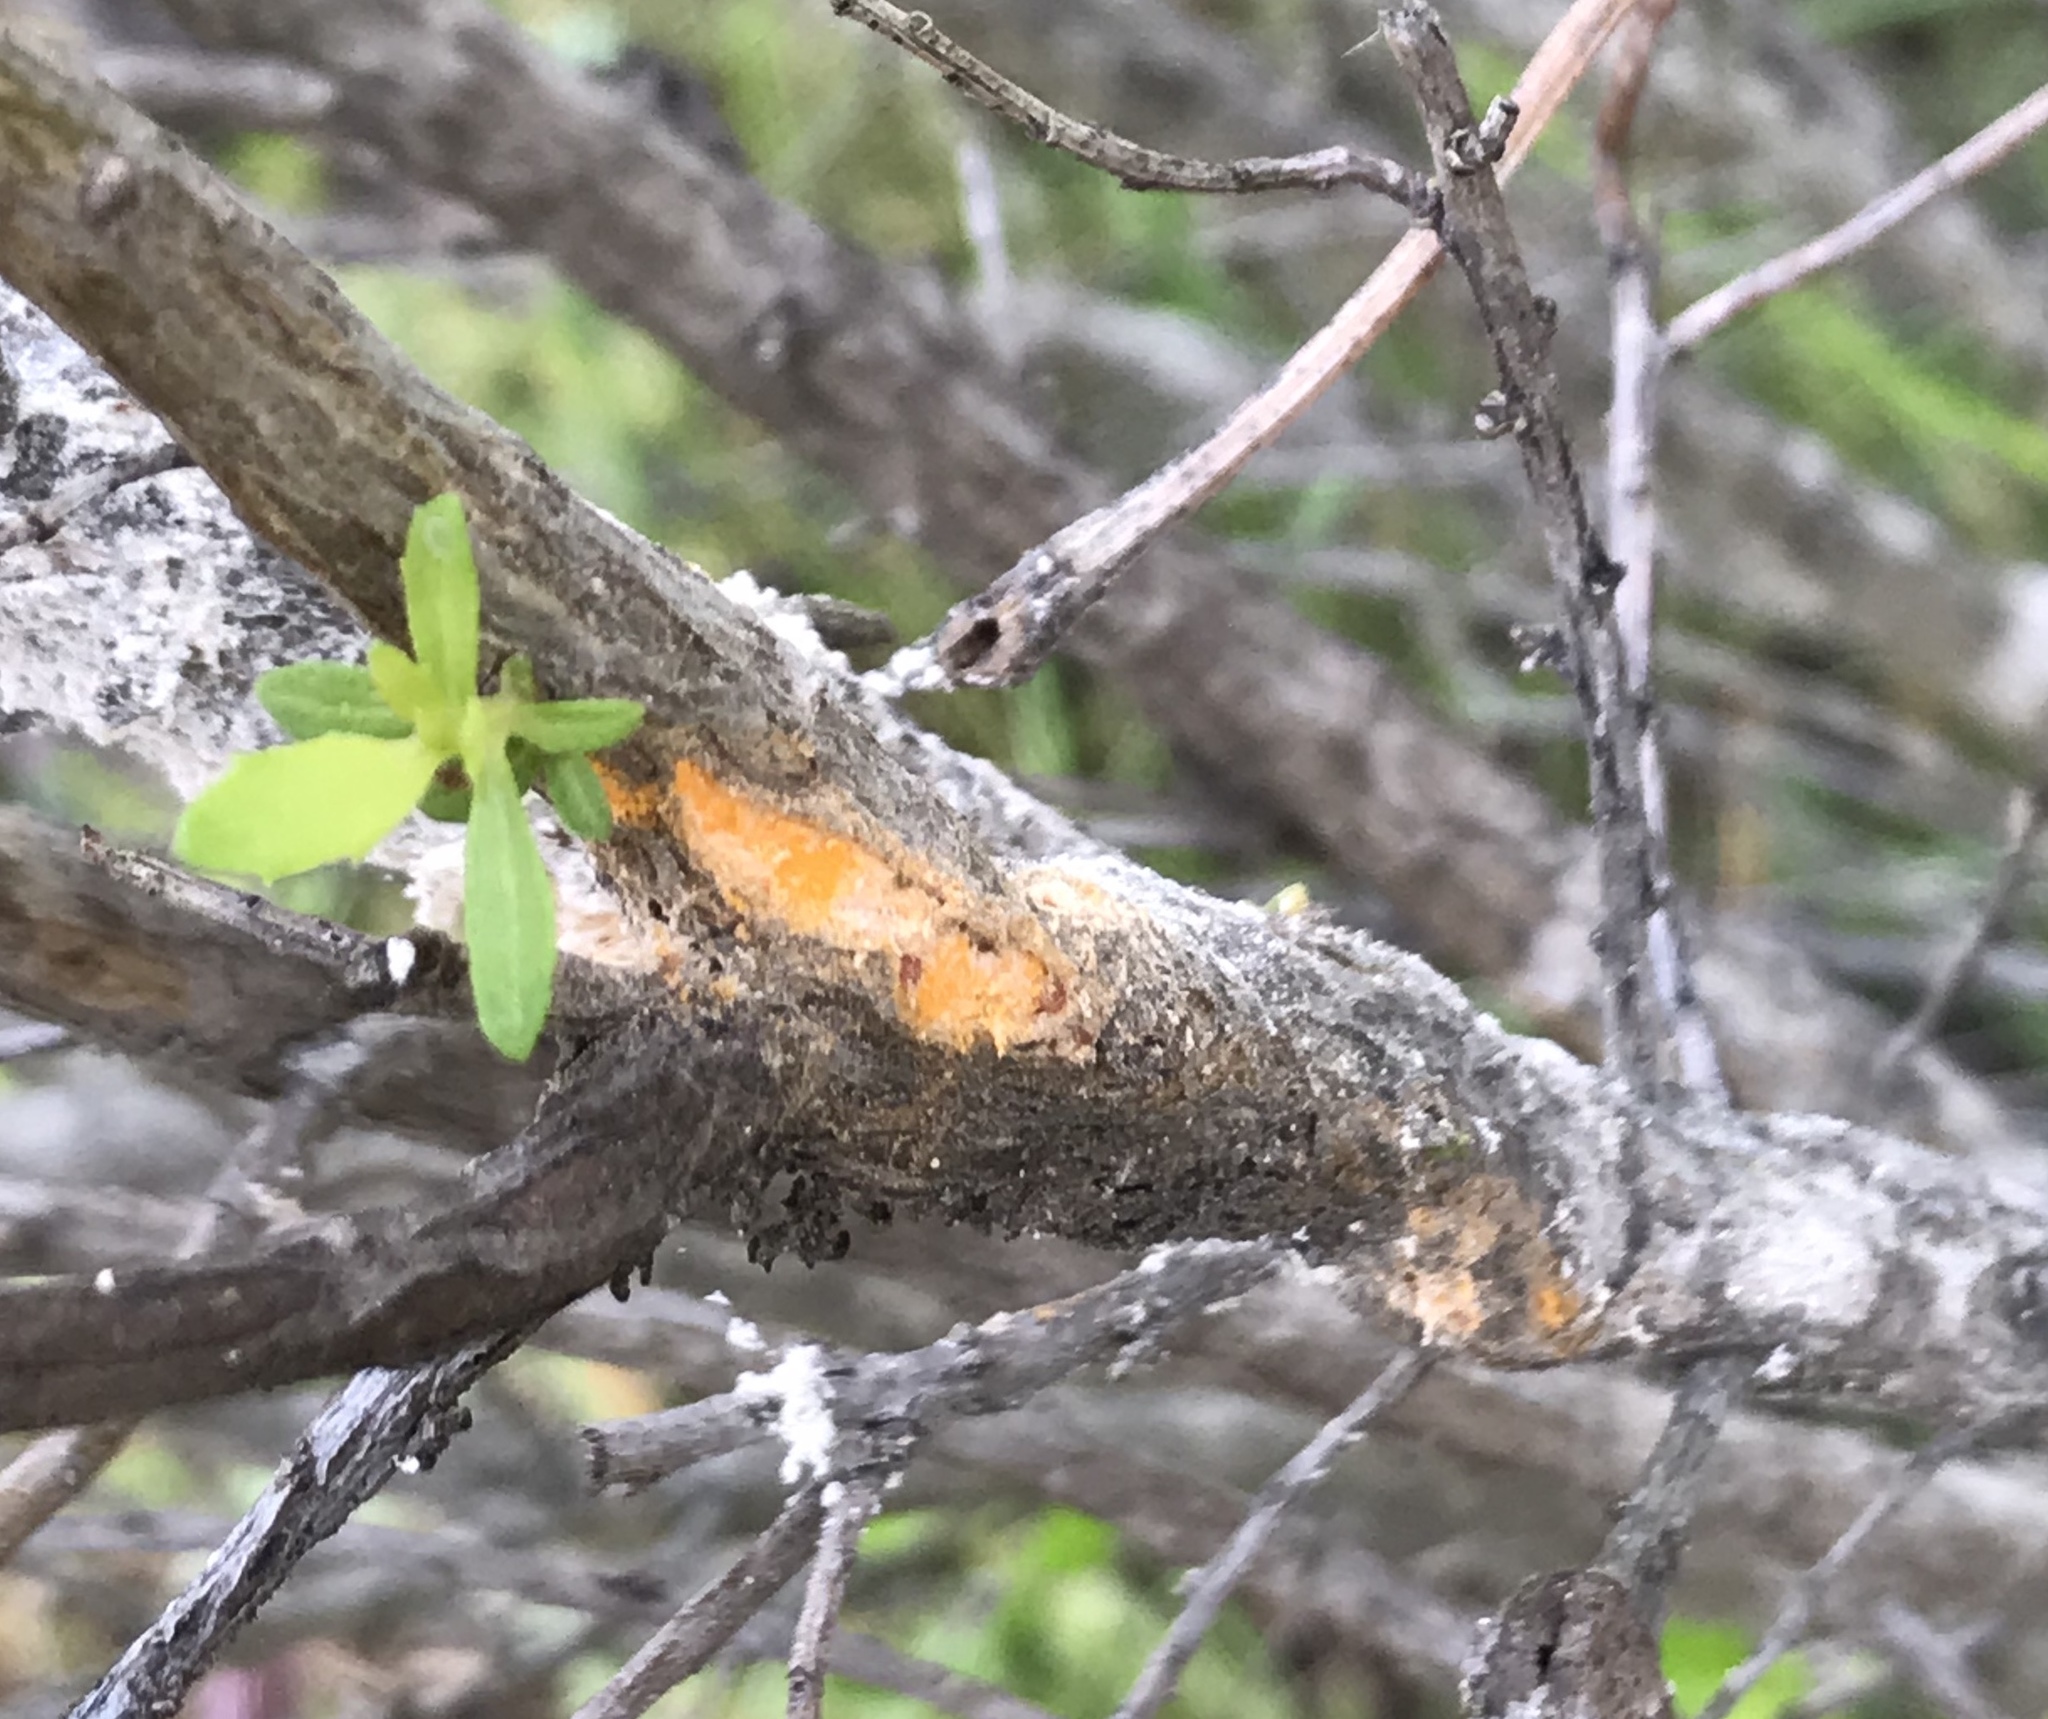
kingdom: Fungi
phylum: Basidiomycota
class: Pucciniomycetes
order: Pucciniales
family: Pucciniaceae
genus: Eriosporangium
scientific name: Eriosporangium evadens
